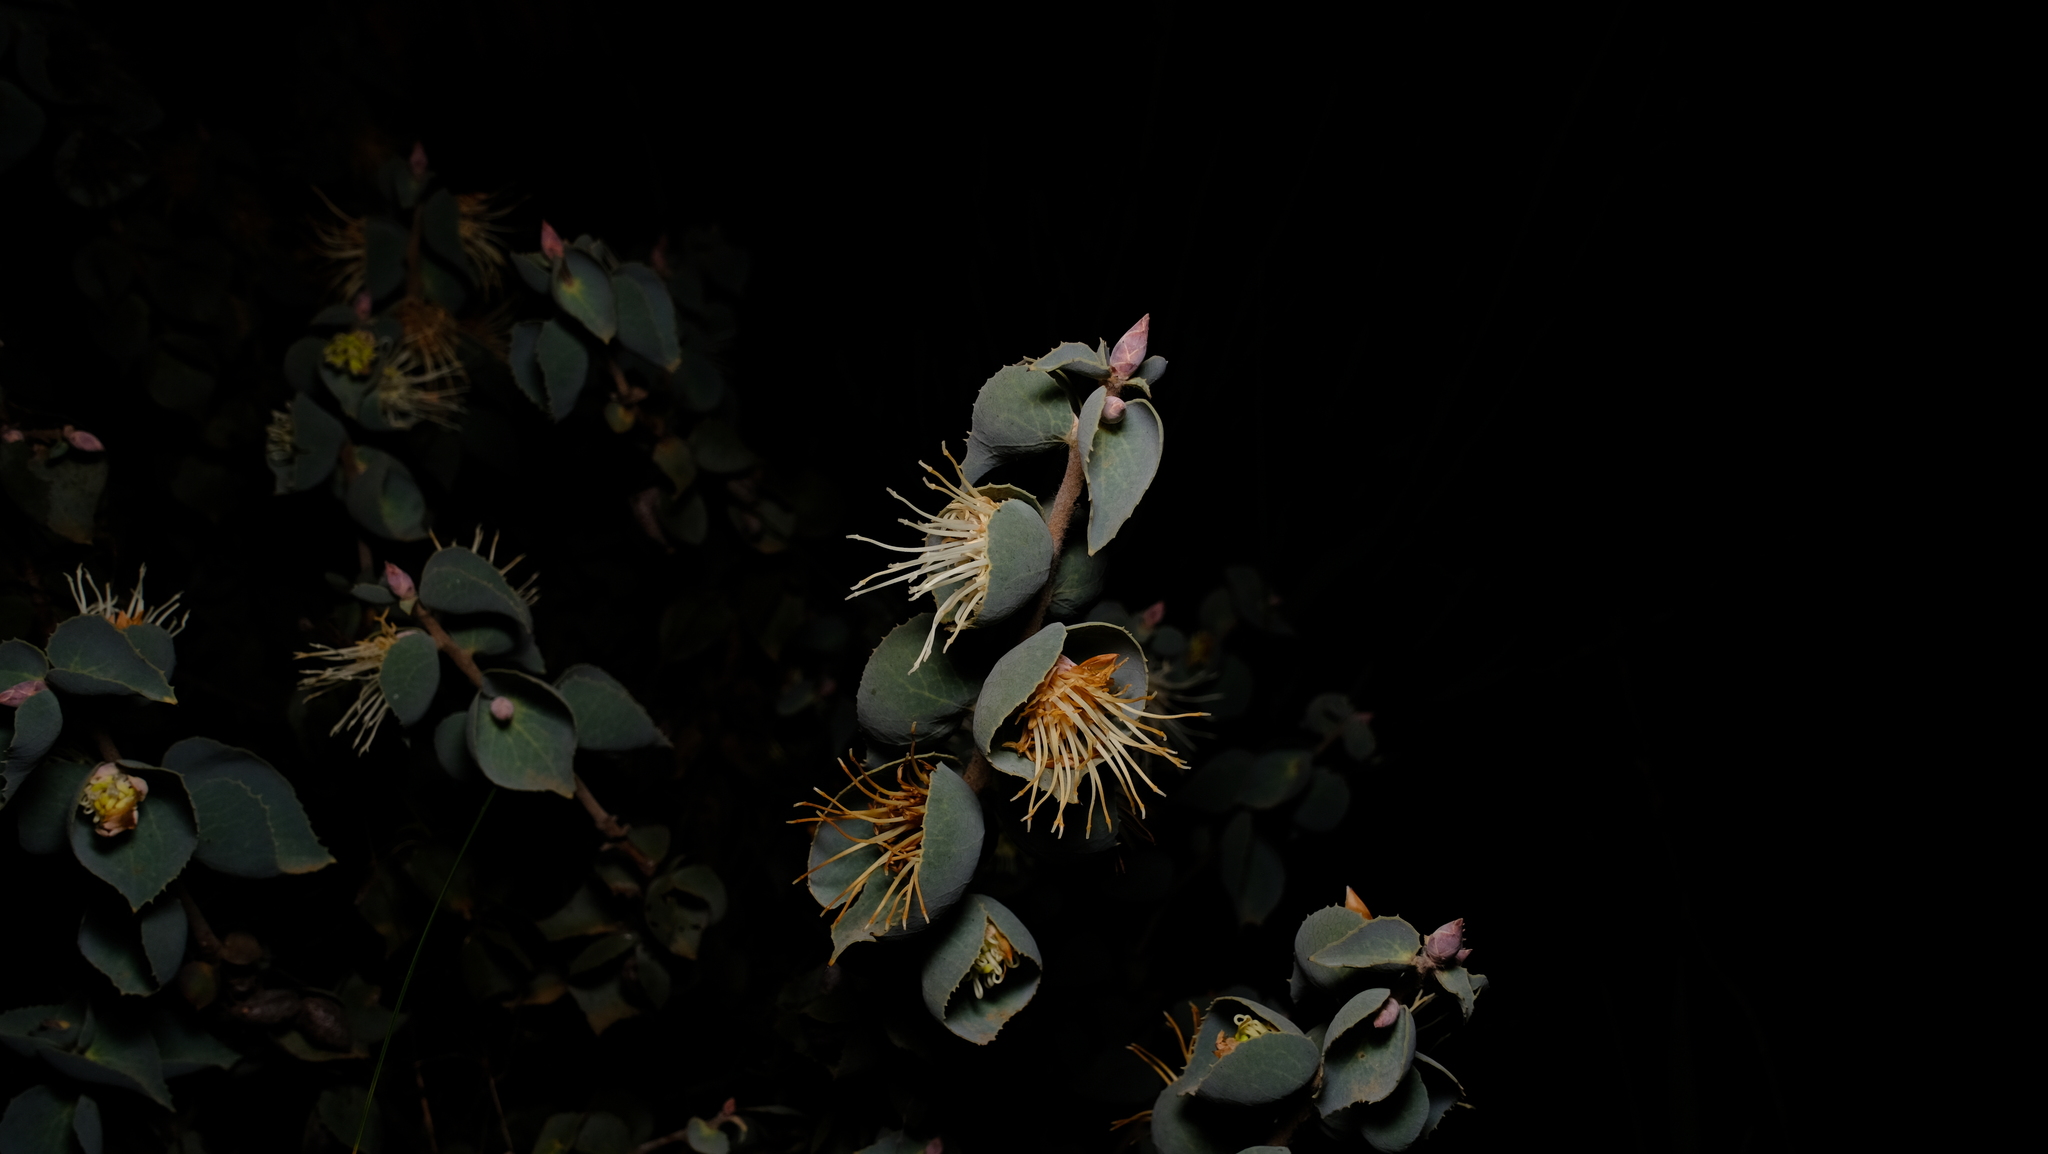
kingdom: Plantae
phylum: Tracheophyta
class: Magnoliopsida
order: Proteales
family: Proteaceae
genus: Hakea
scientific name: Hakea conchifolia
